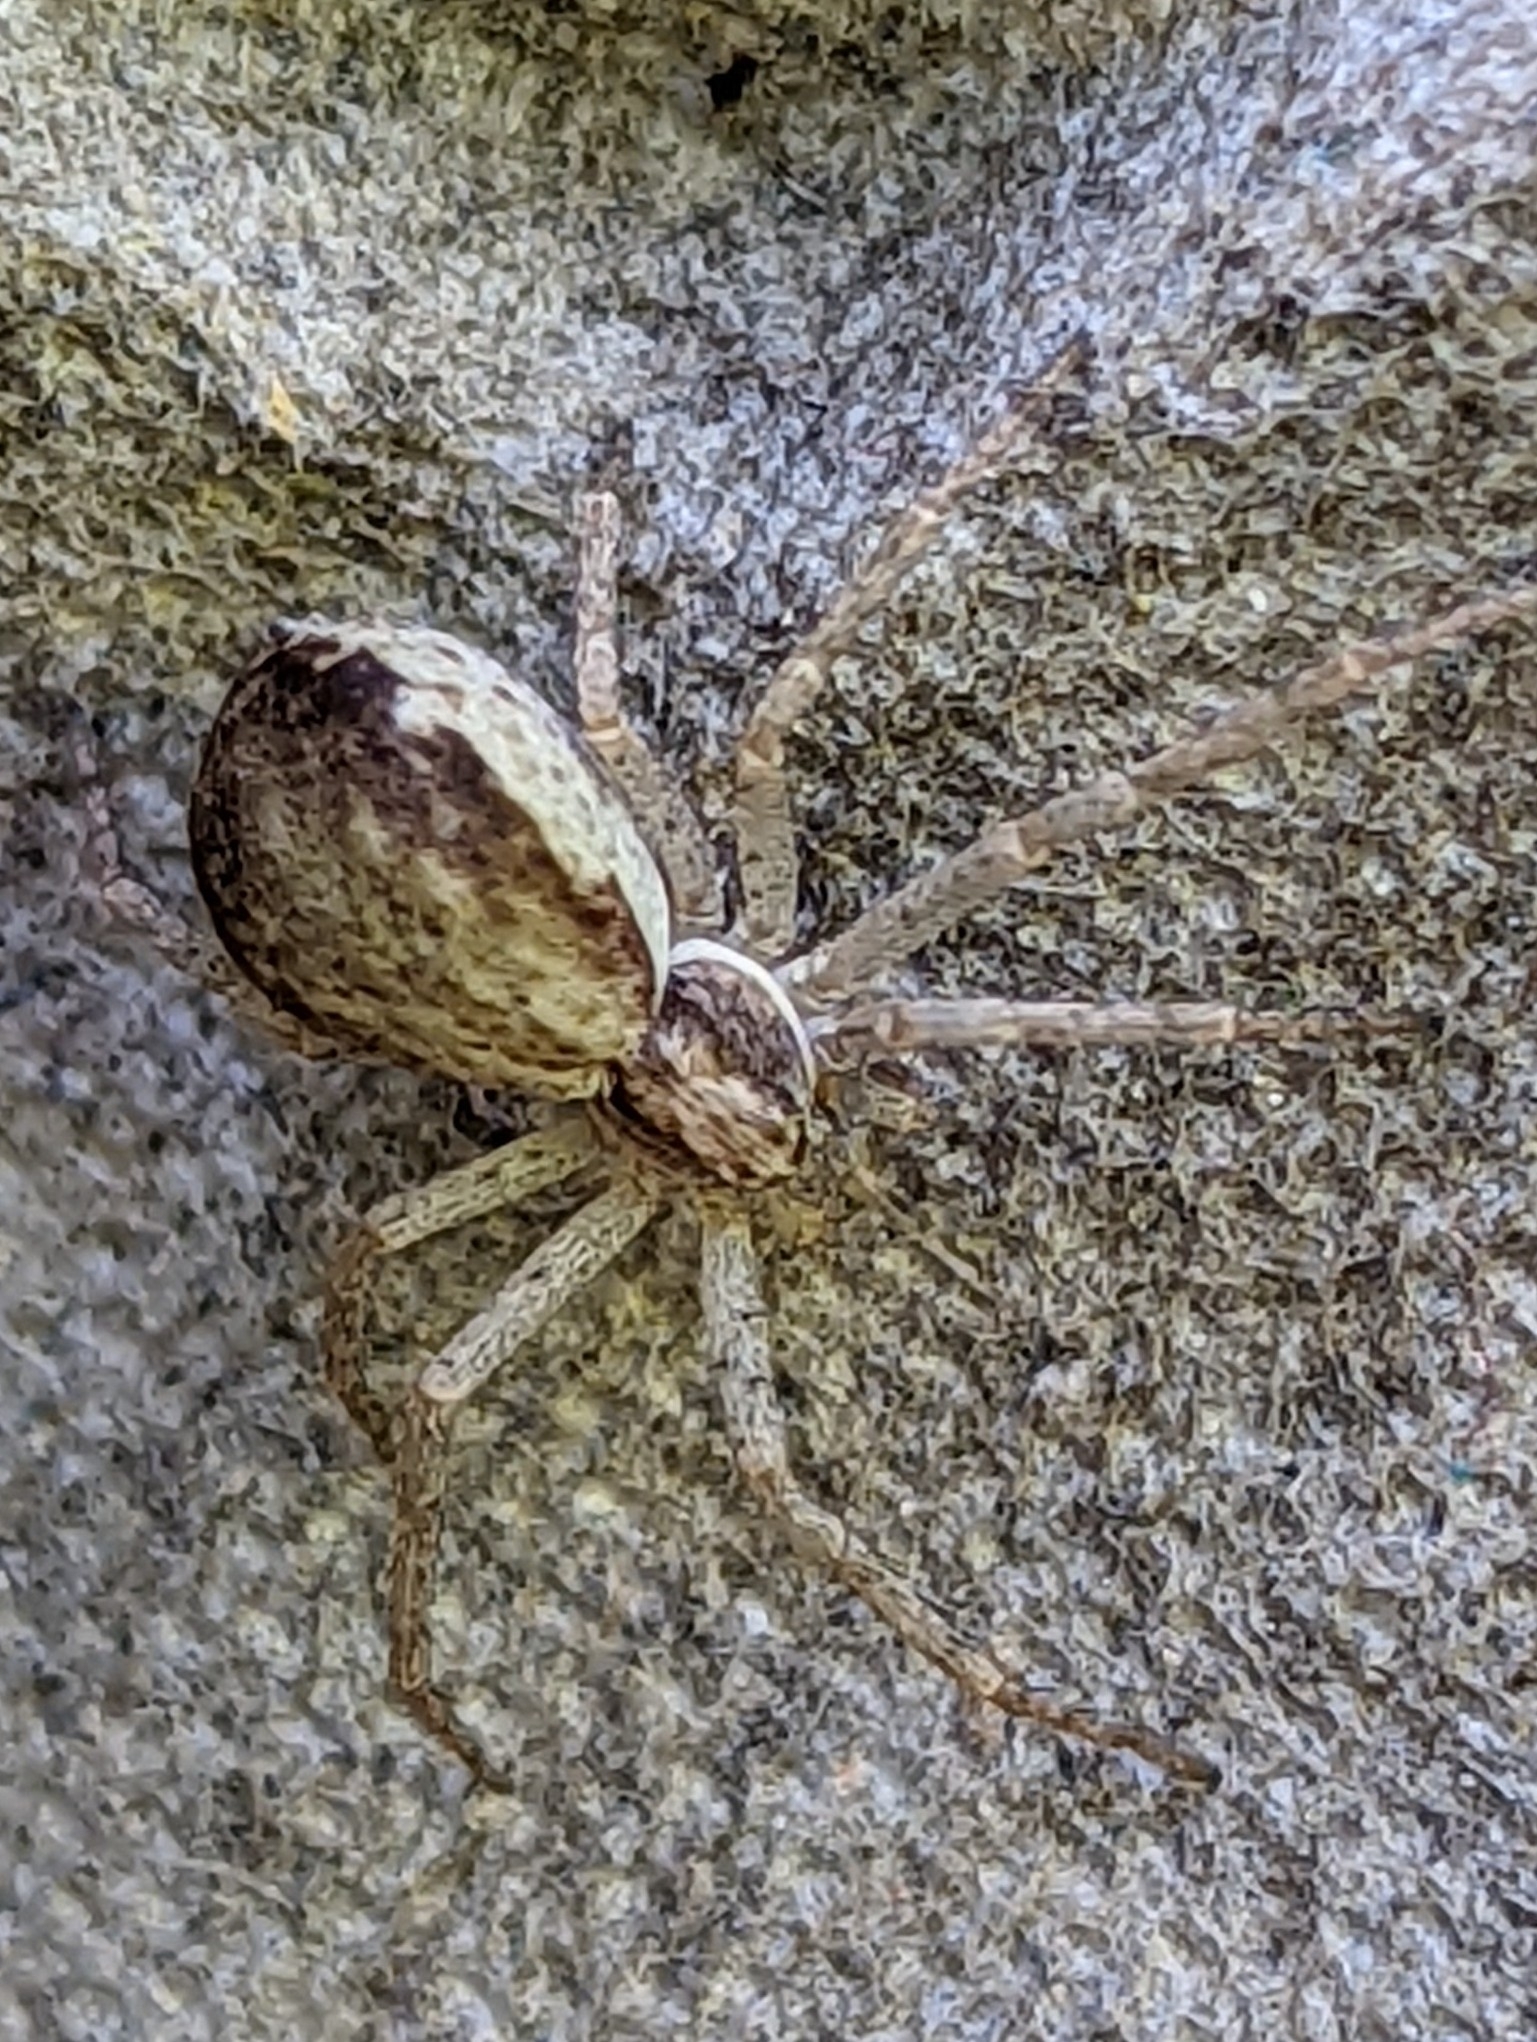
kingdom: Animalia
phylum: Arthropoda
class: Arachnida
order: Araneae
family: Philodromidae
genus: Philodromus
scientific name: Philodromus dispar
